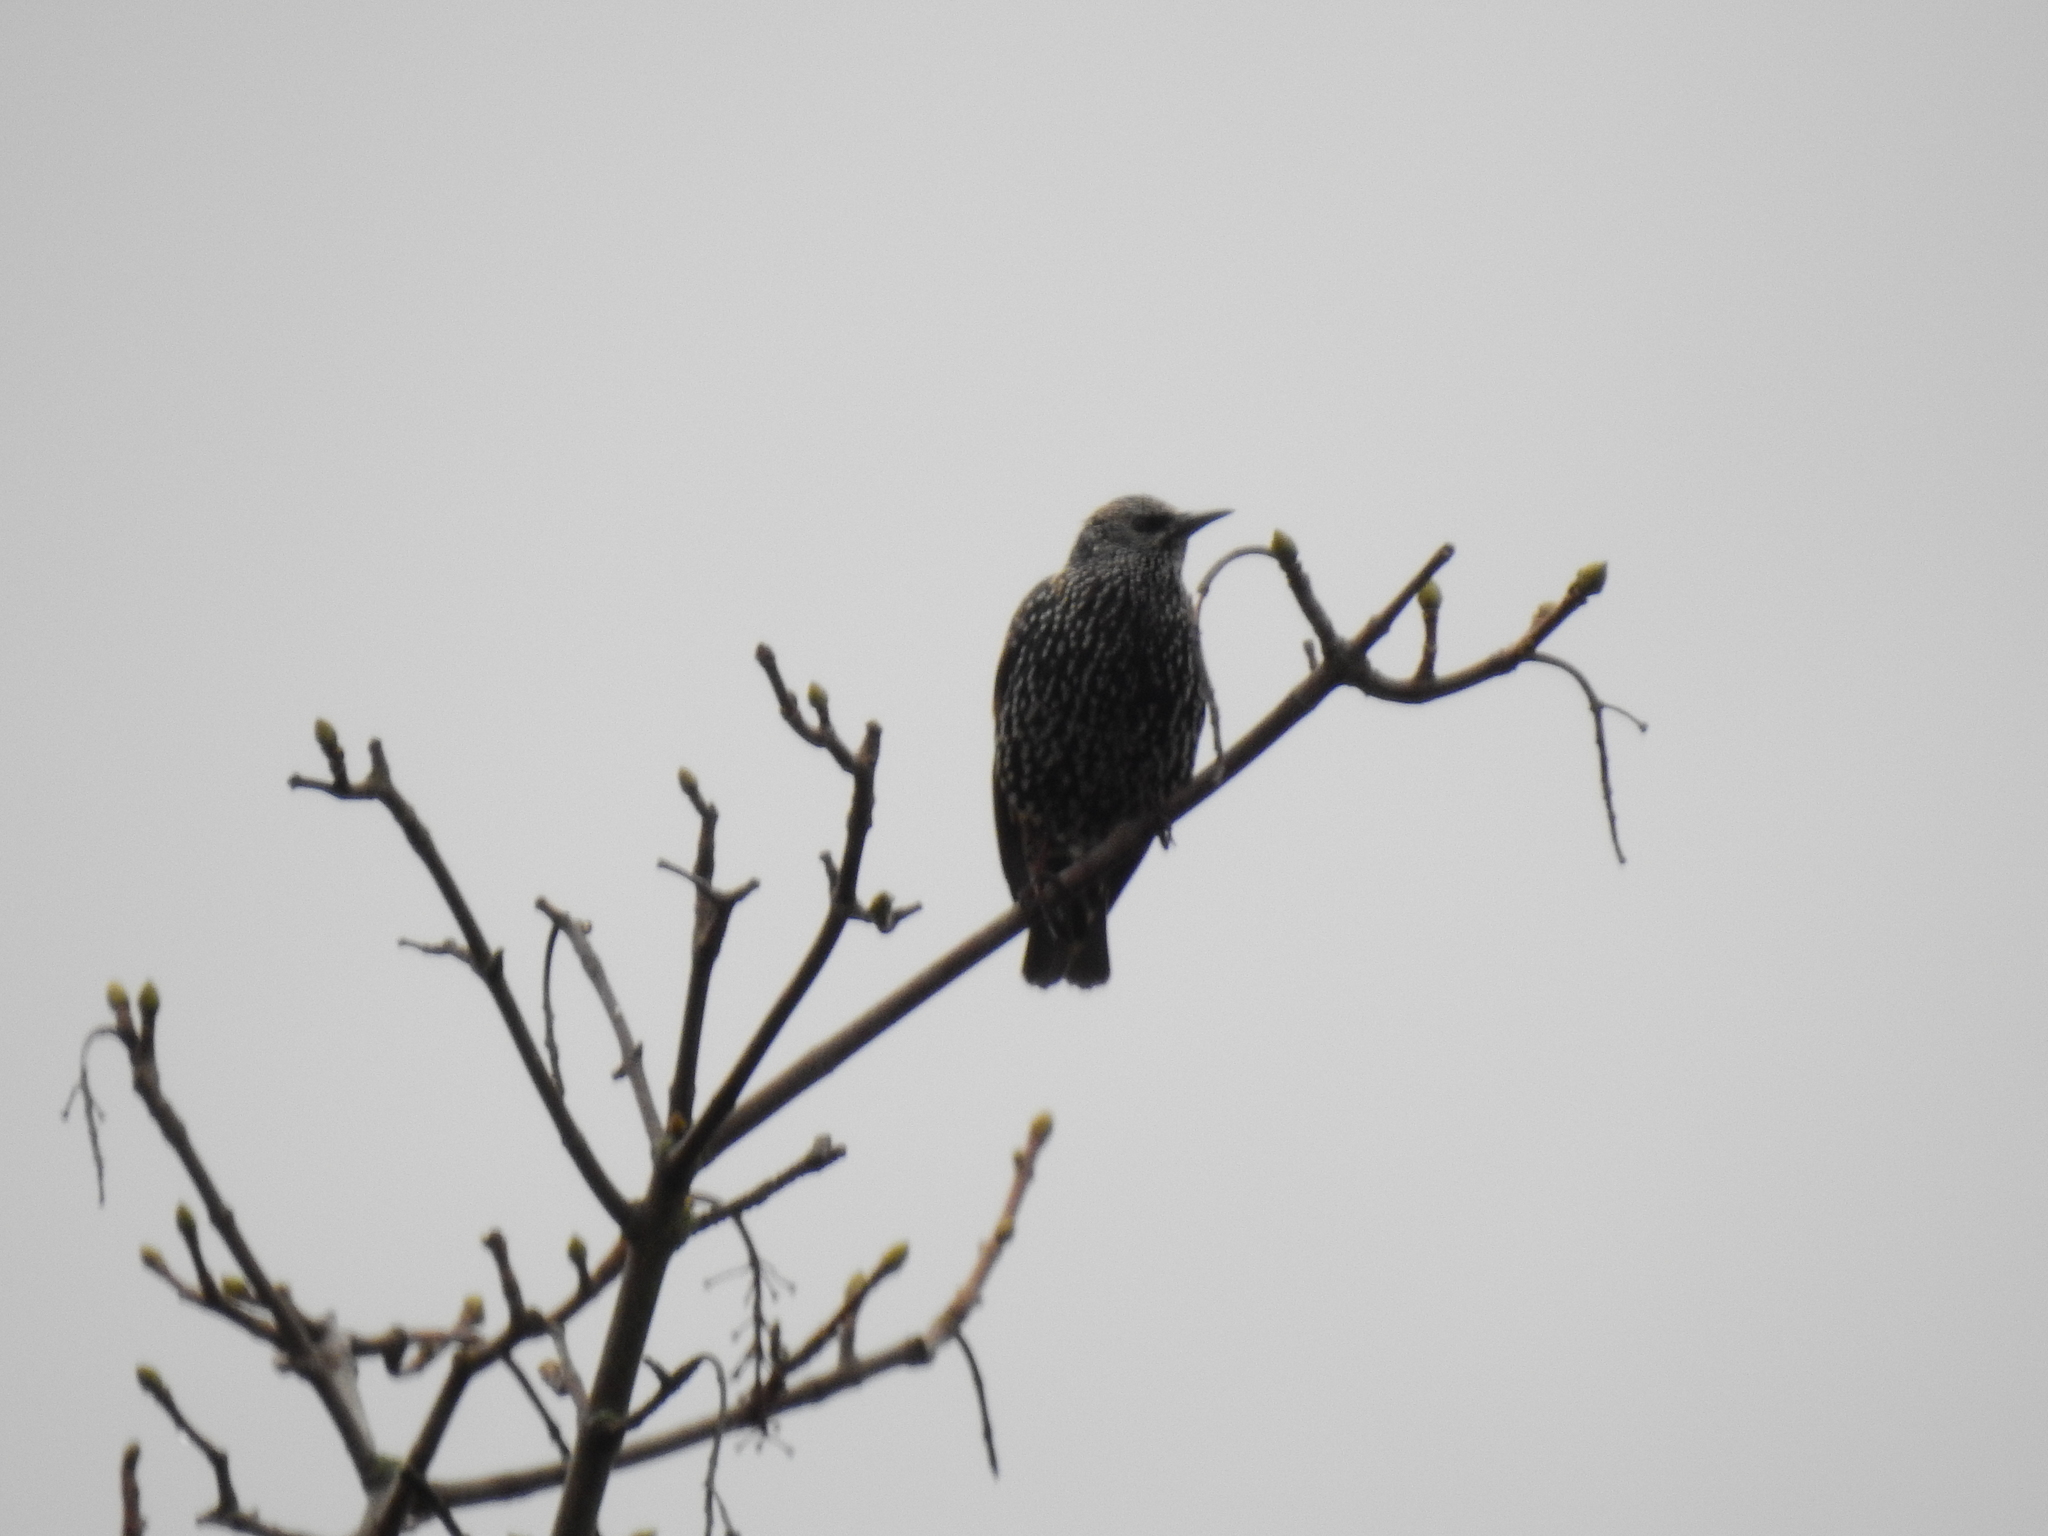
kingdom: Animalia
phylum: Chordata
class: Aves
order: Passeriformes
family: Sturnidae
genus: Sturnus
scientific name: Sturnus vulgaris
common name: Common starling
